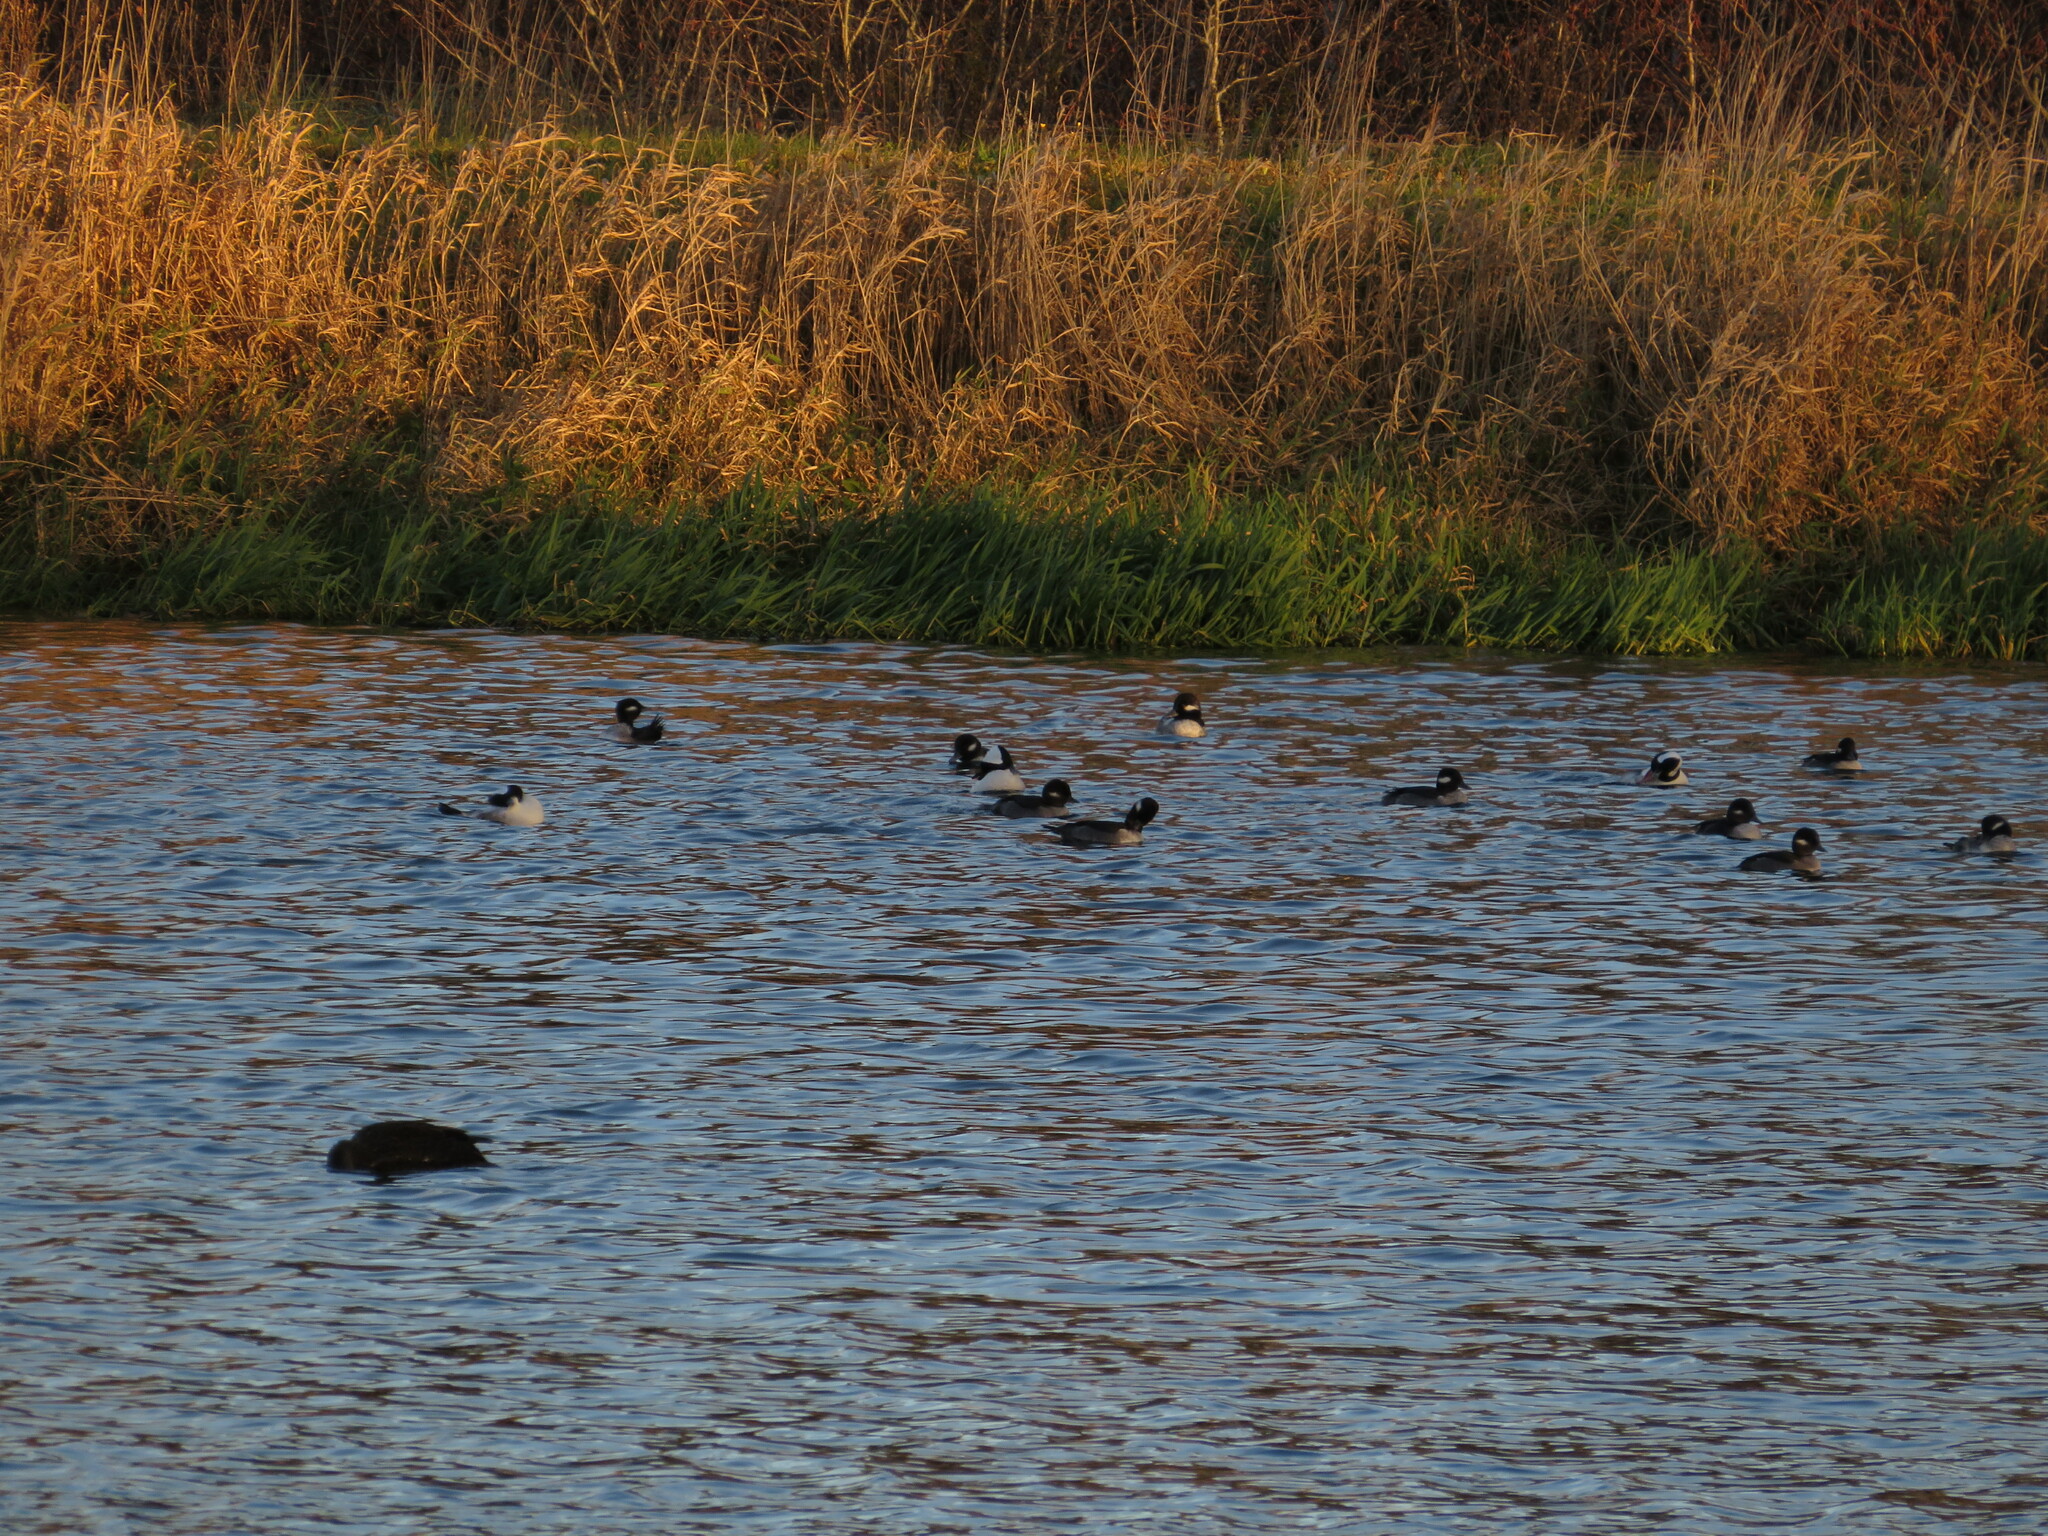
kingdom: Animalia
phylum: Chordata
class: Aves
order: Anseriformes
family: Anatidae
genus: Bucephala
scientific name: Bucephala albeola
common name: Bufflehead
